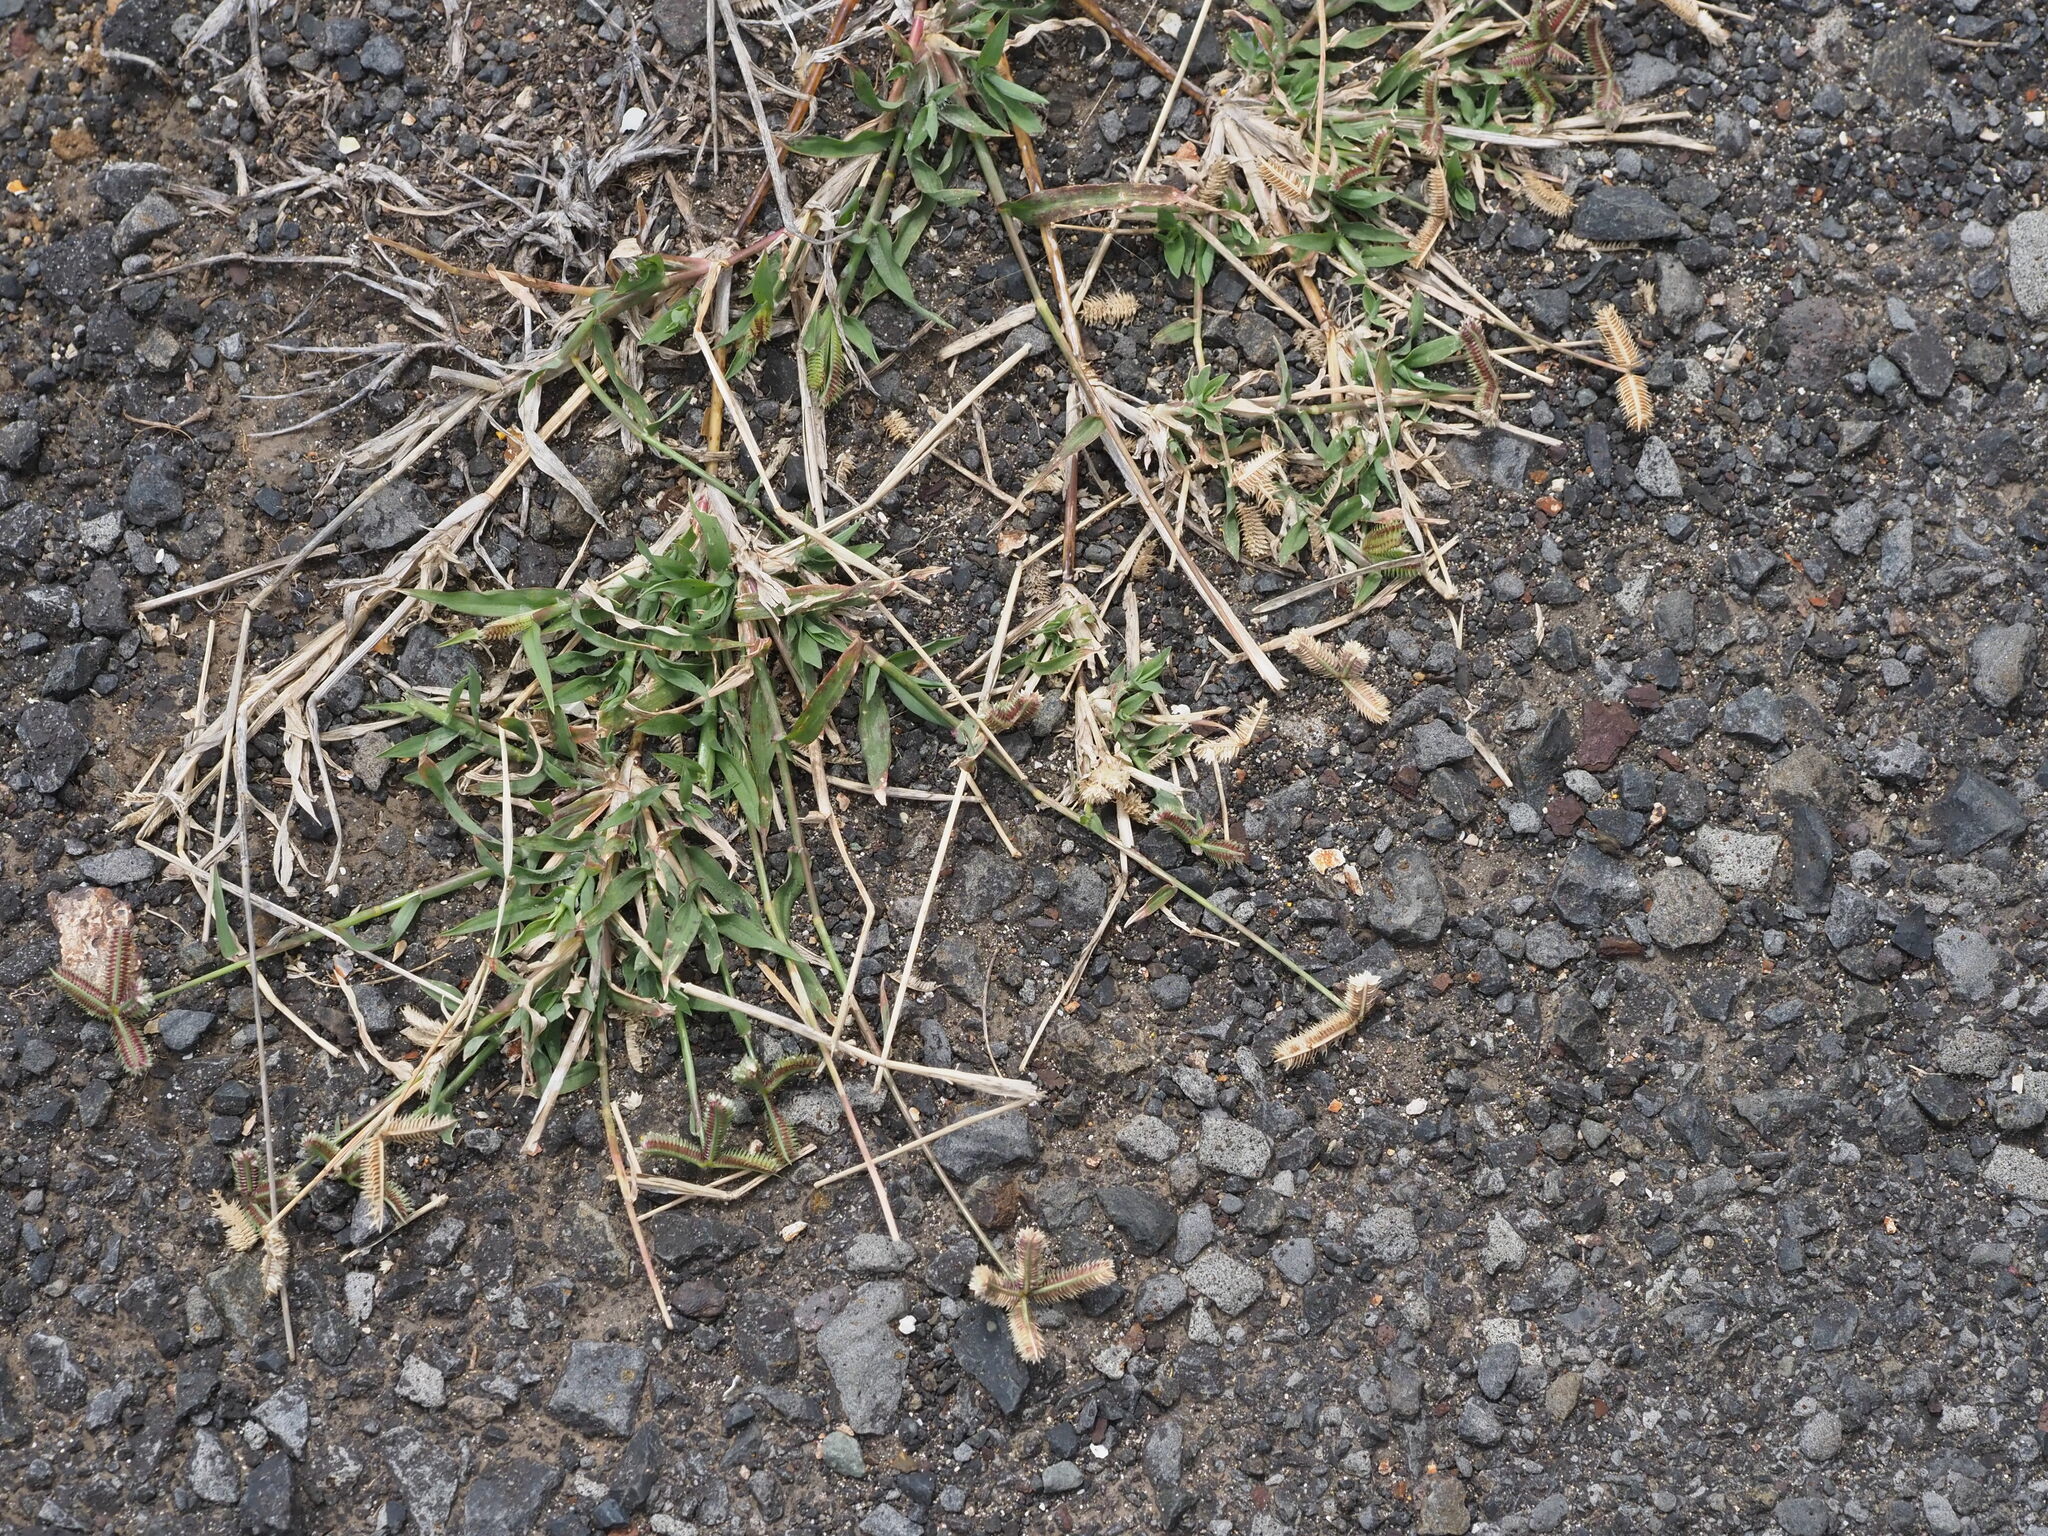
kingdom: Plantae
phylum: Tracheophyta
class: Liliopsida
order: Poales
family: Poaceae
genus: Dactyloctenium
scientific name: Dactyloctenium aegyptium
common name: Egyptian grass
